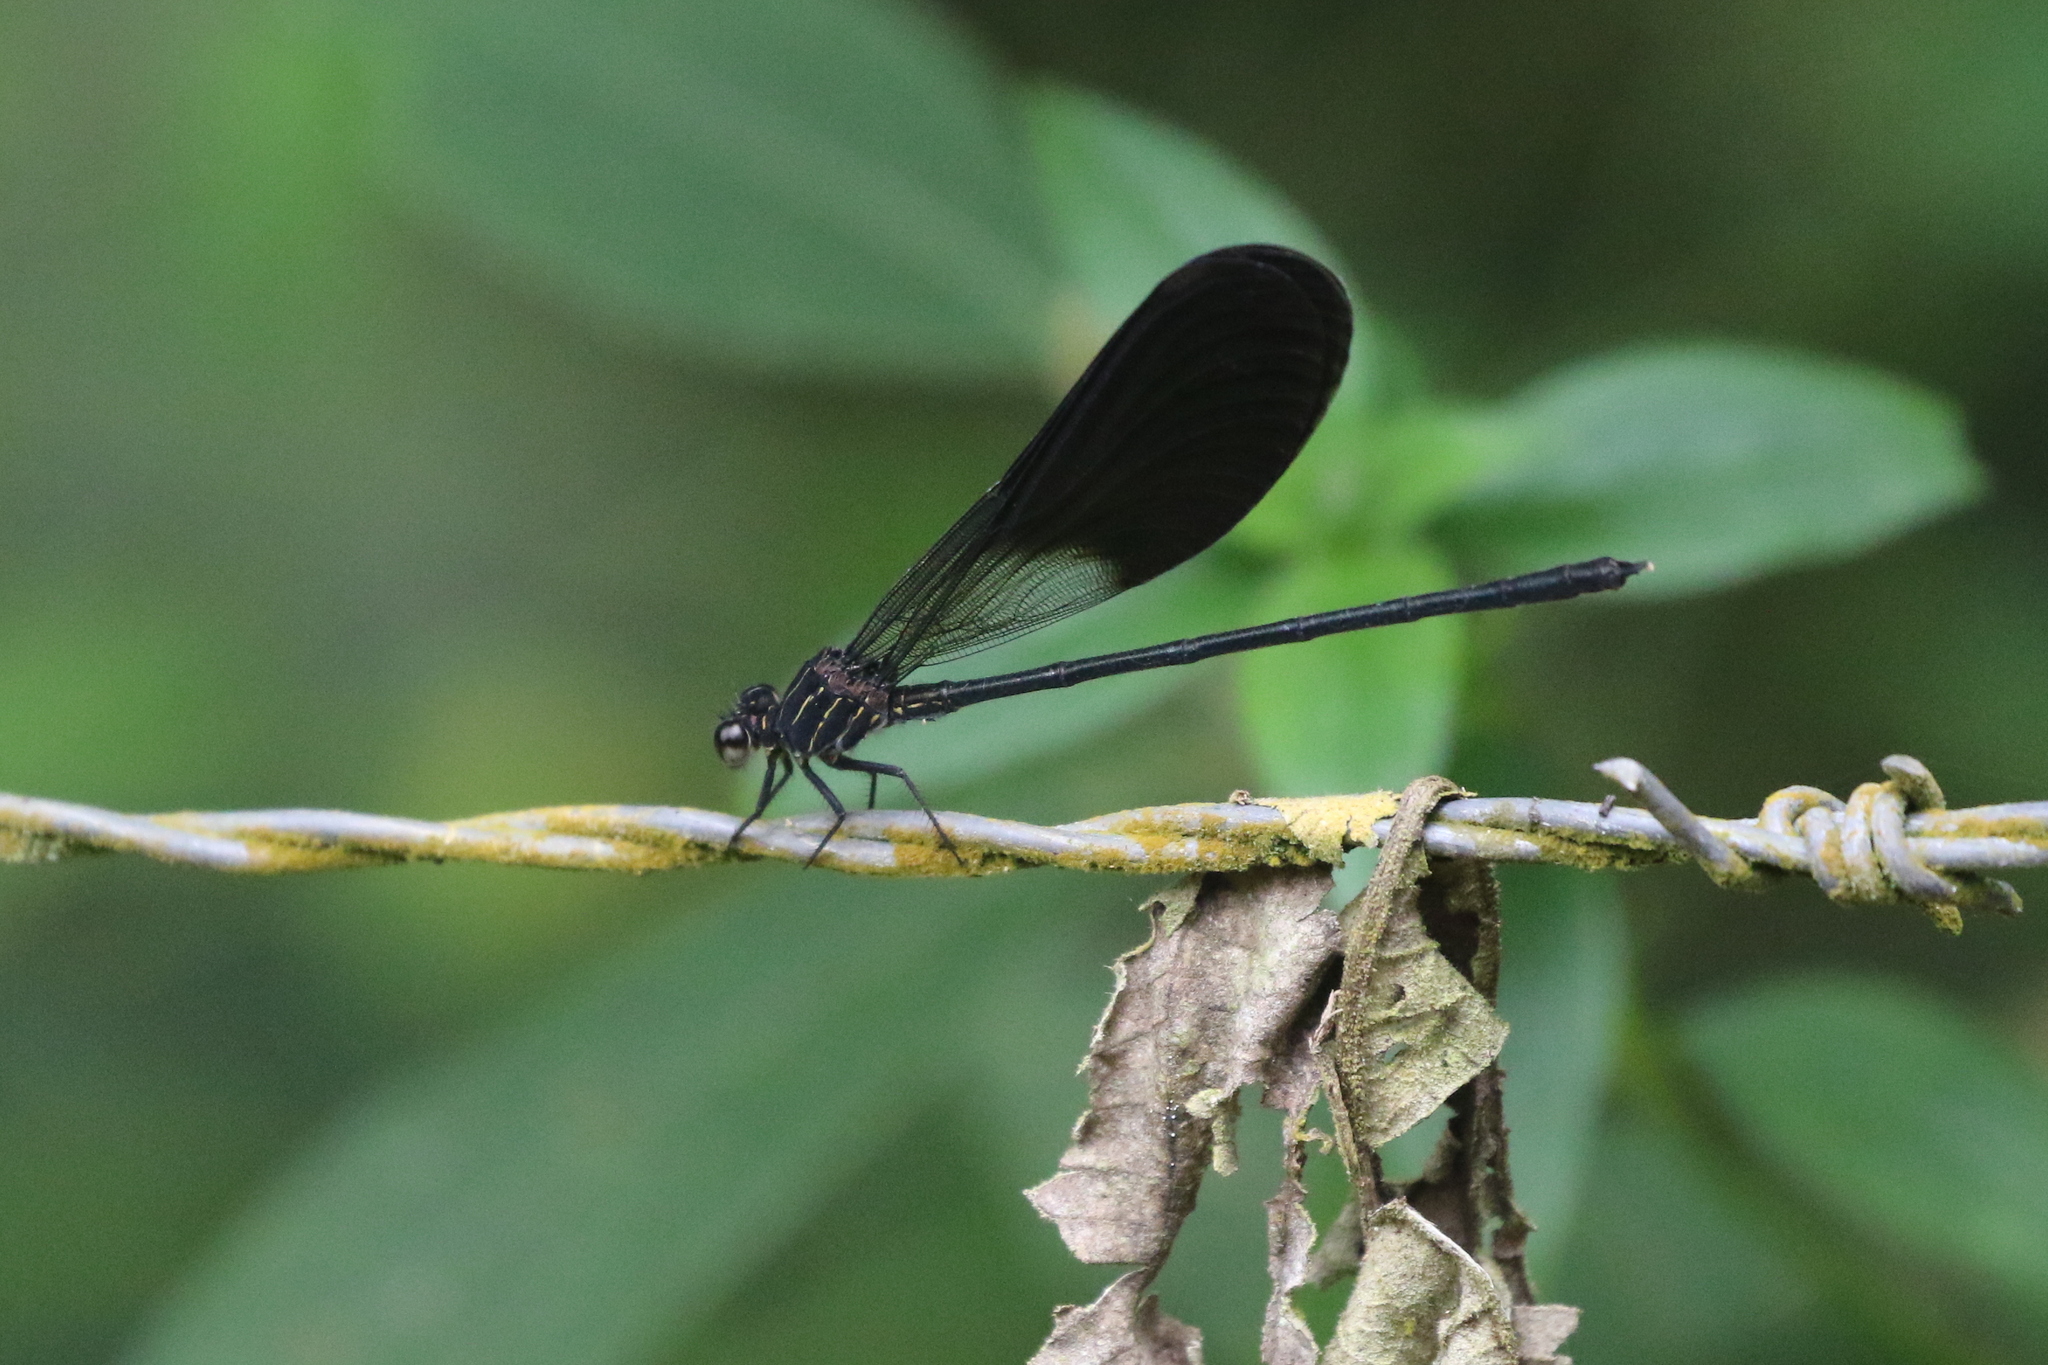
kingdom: Animalia
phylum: Arthropoda
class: Insecta
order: Odonata
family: Polythoridae
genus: Polythore
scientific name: Polythore gigantea
